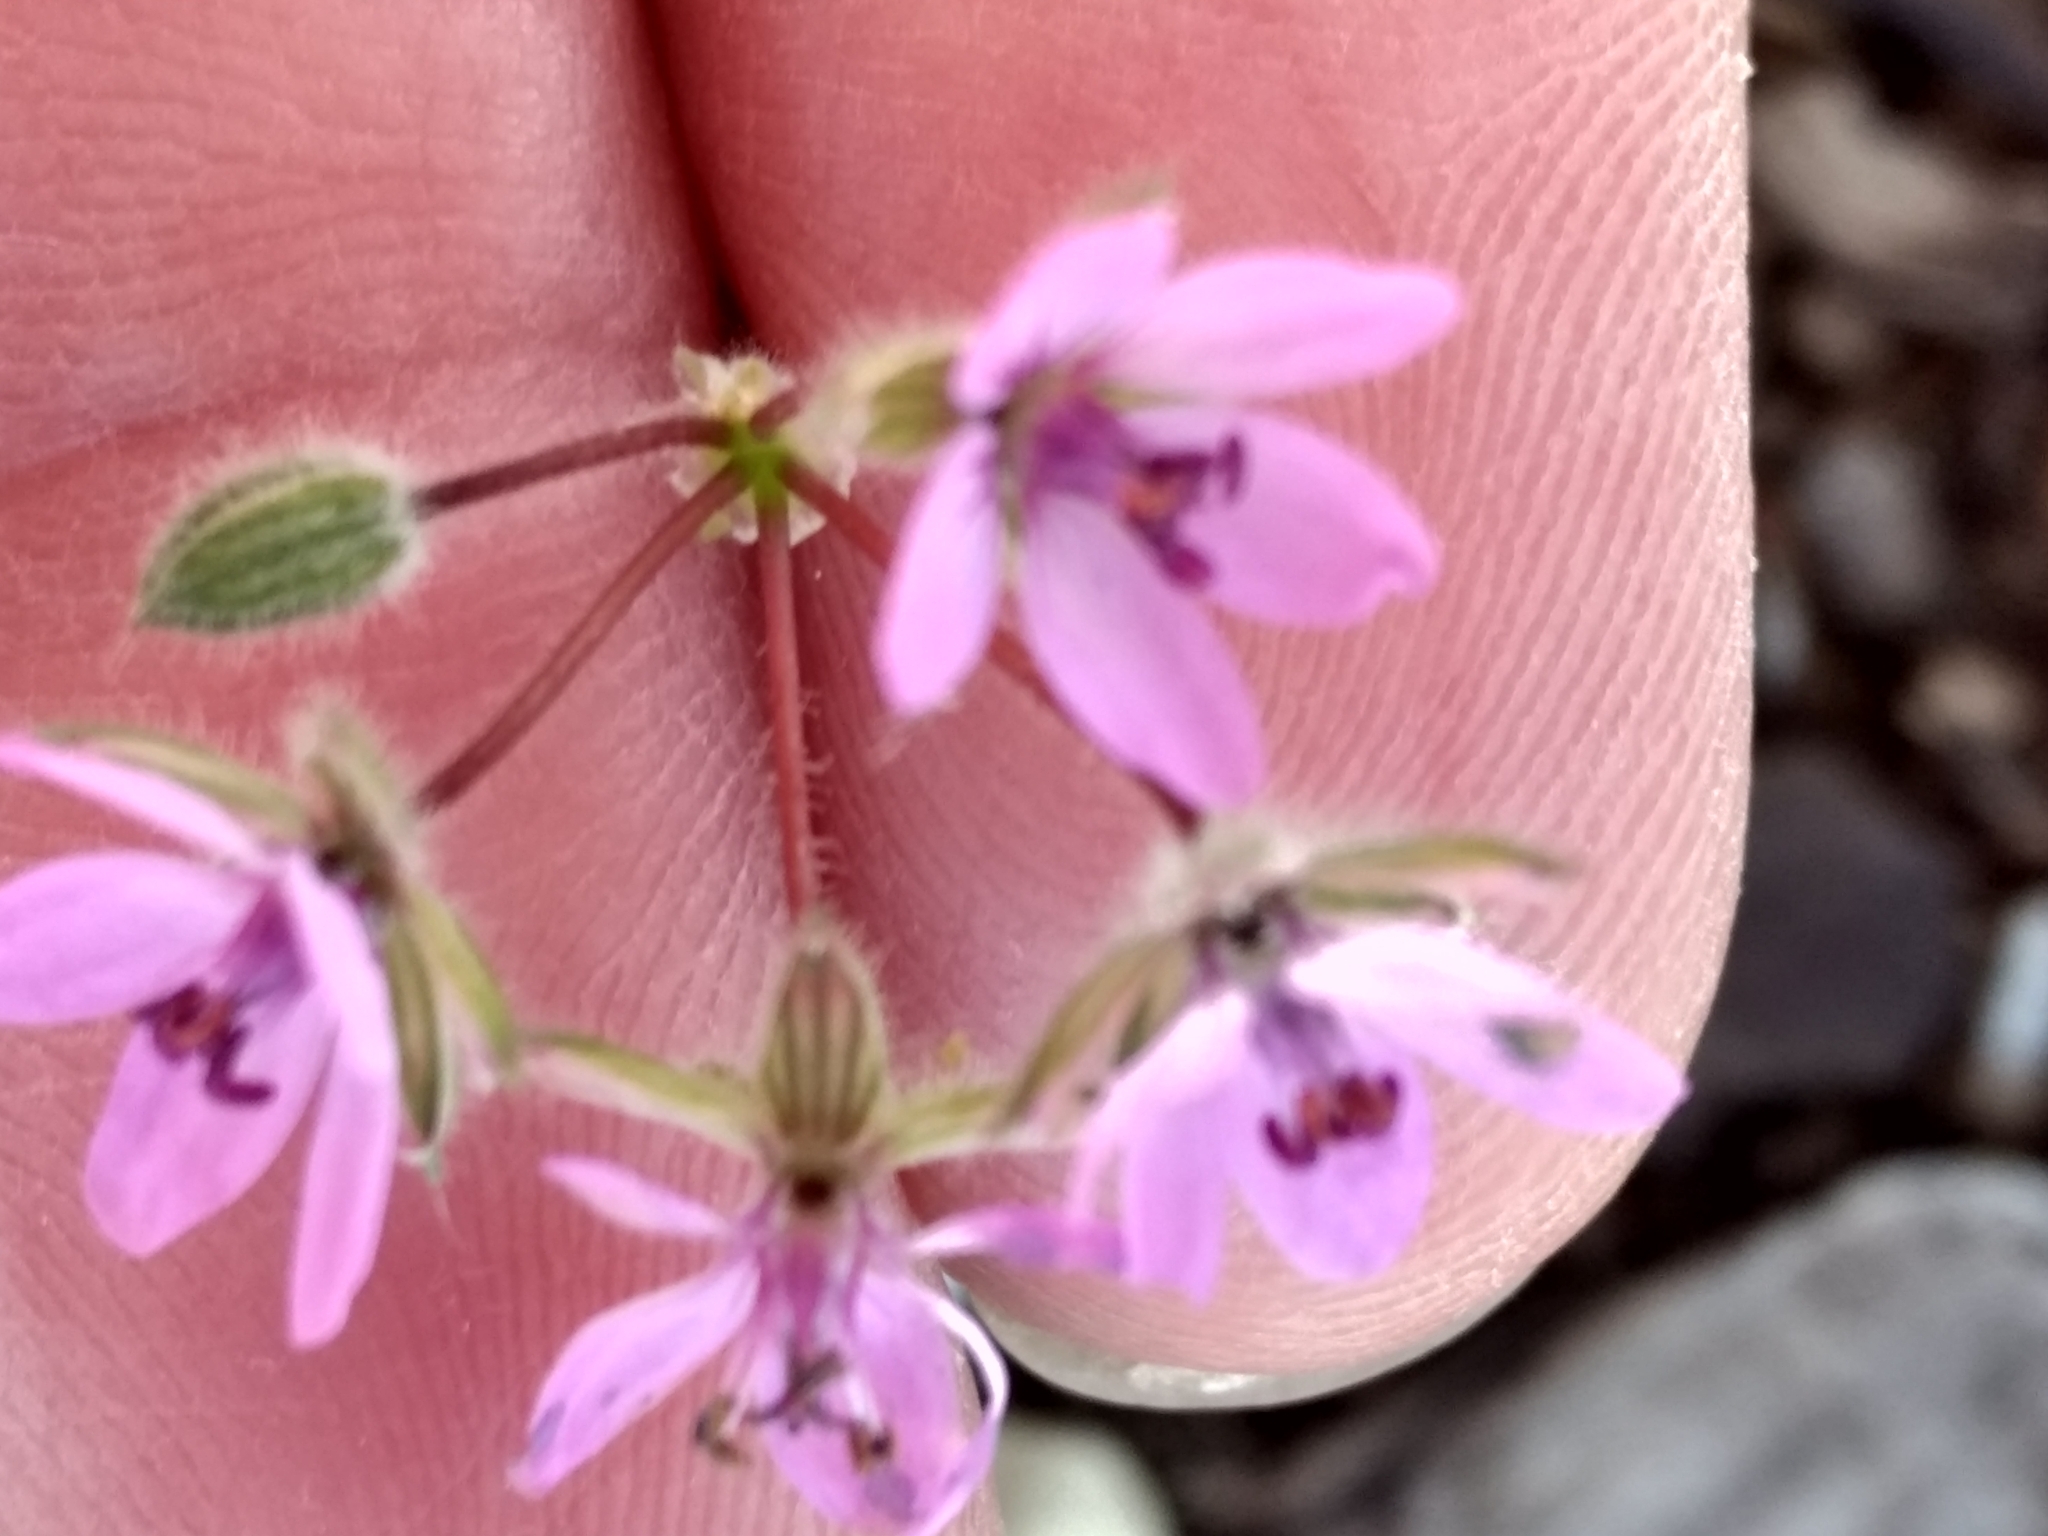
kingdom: Plantae
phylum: Tracheophyta
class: Magnoliopsida
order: Geraniales
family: Geraniaceae
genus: Erodium
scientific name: Erodium cicutarium
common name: Common stork's-bill
